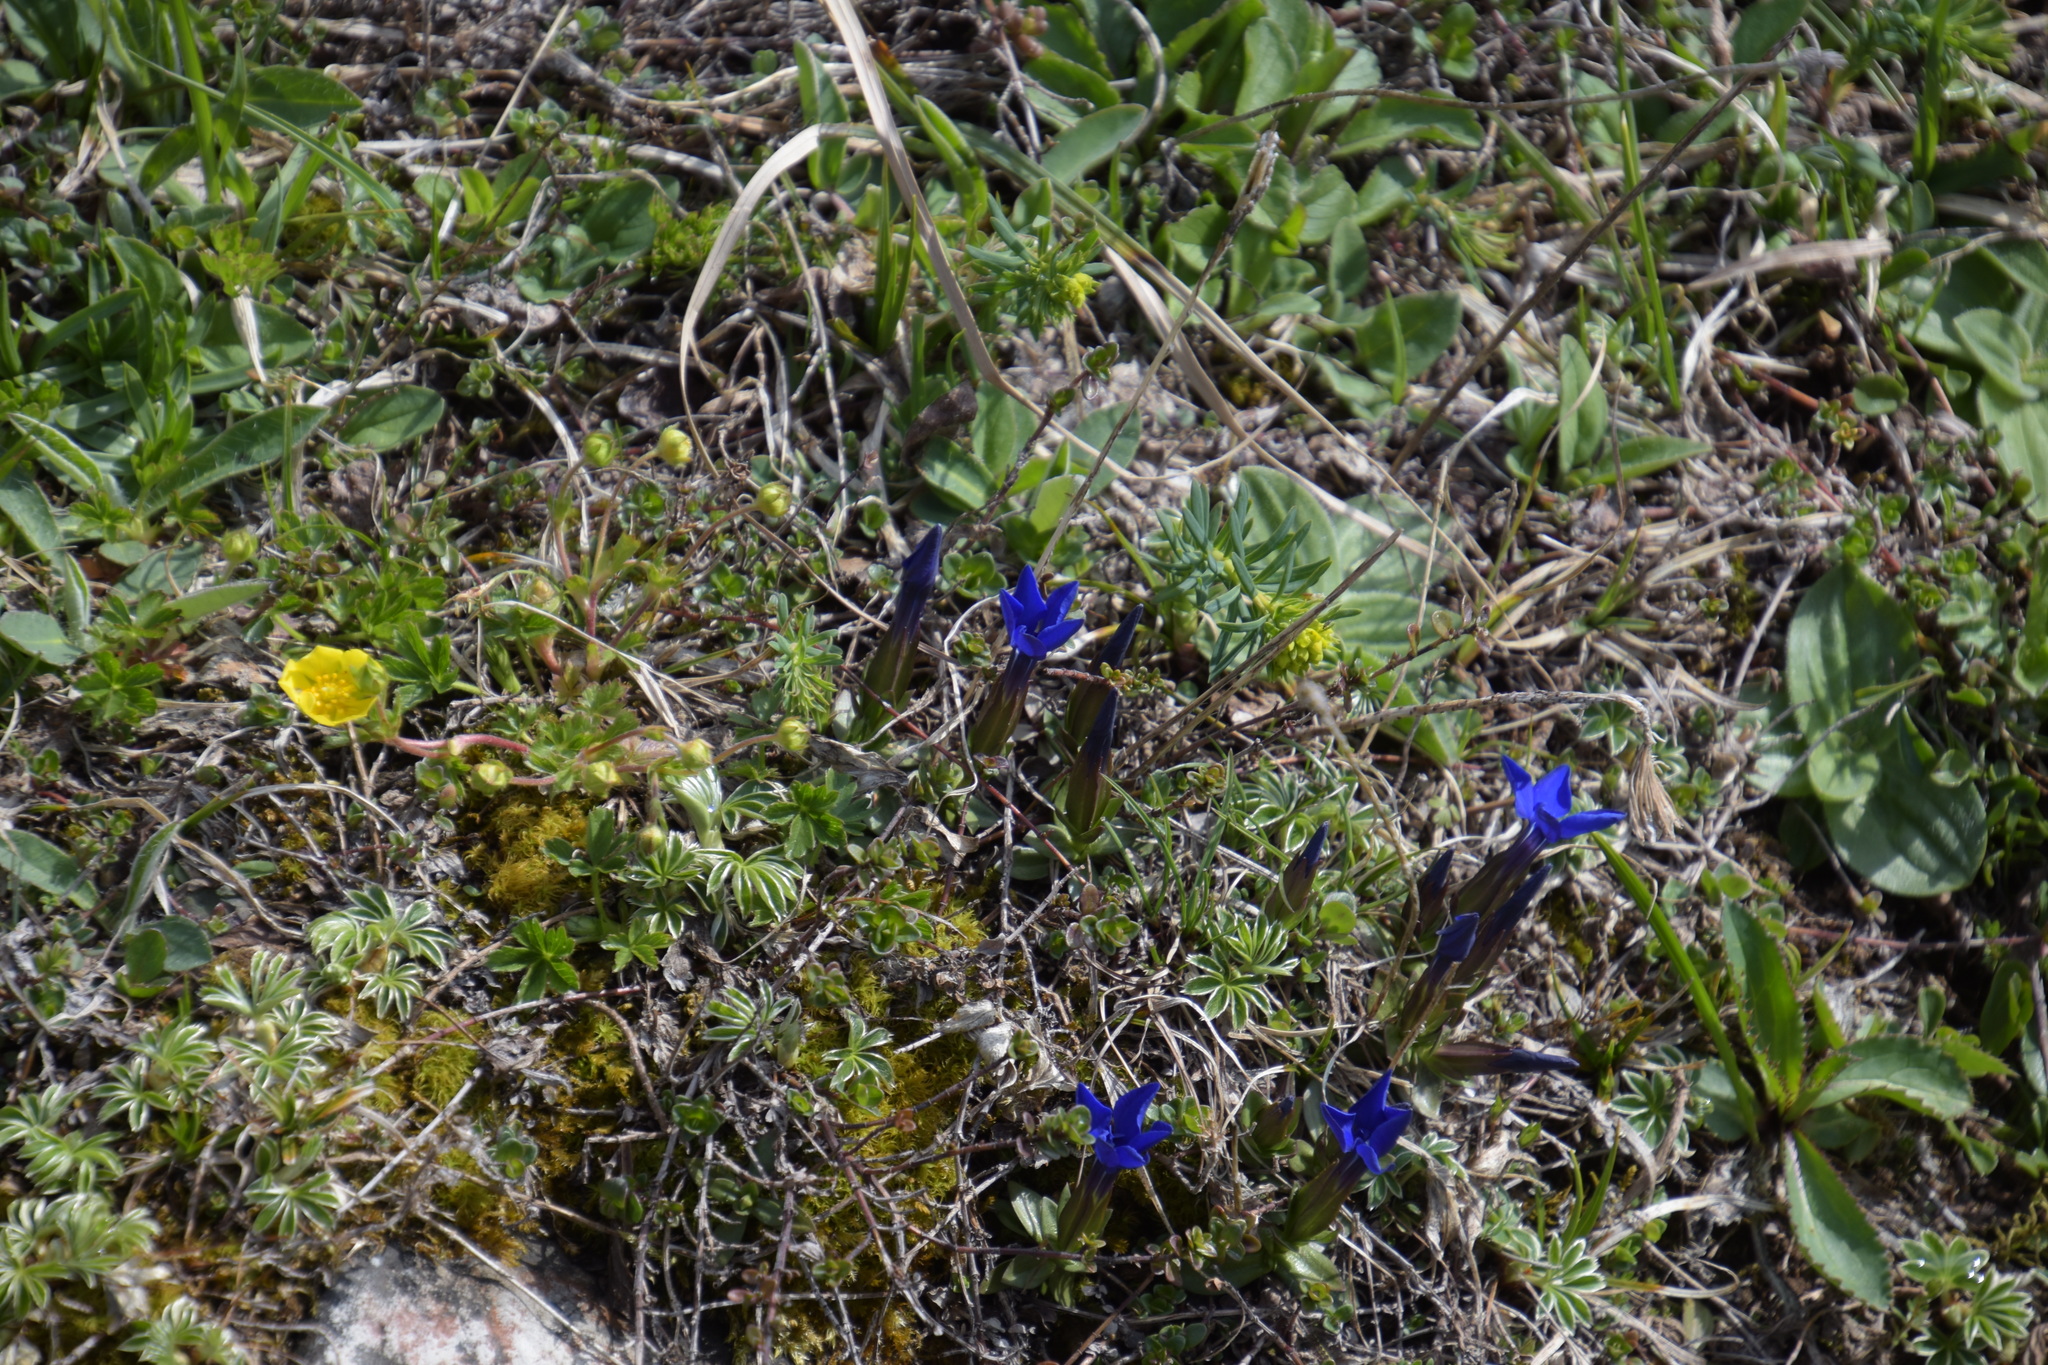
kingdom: Plantae
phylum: Tracheophyta
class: Magnoliopsida
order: Gentianales
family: Gentianaceae
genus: Gentiana
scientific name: Gentiana verna
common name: Spring gentian
